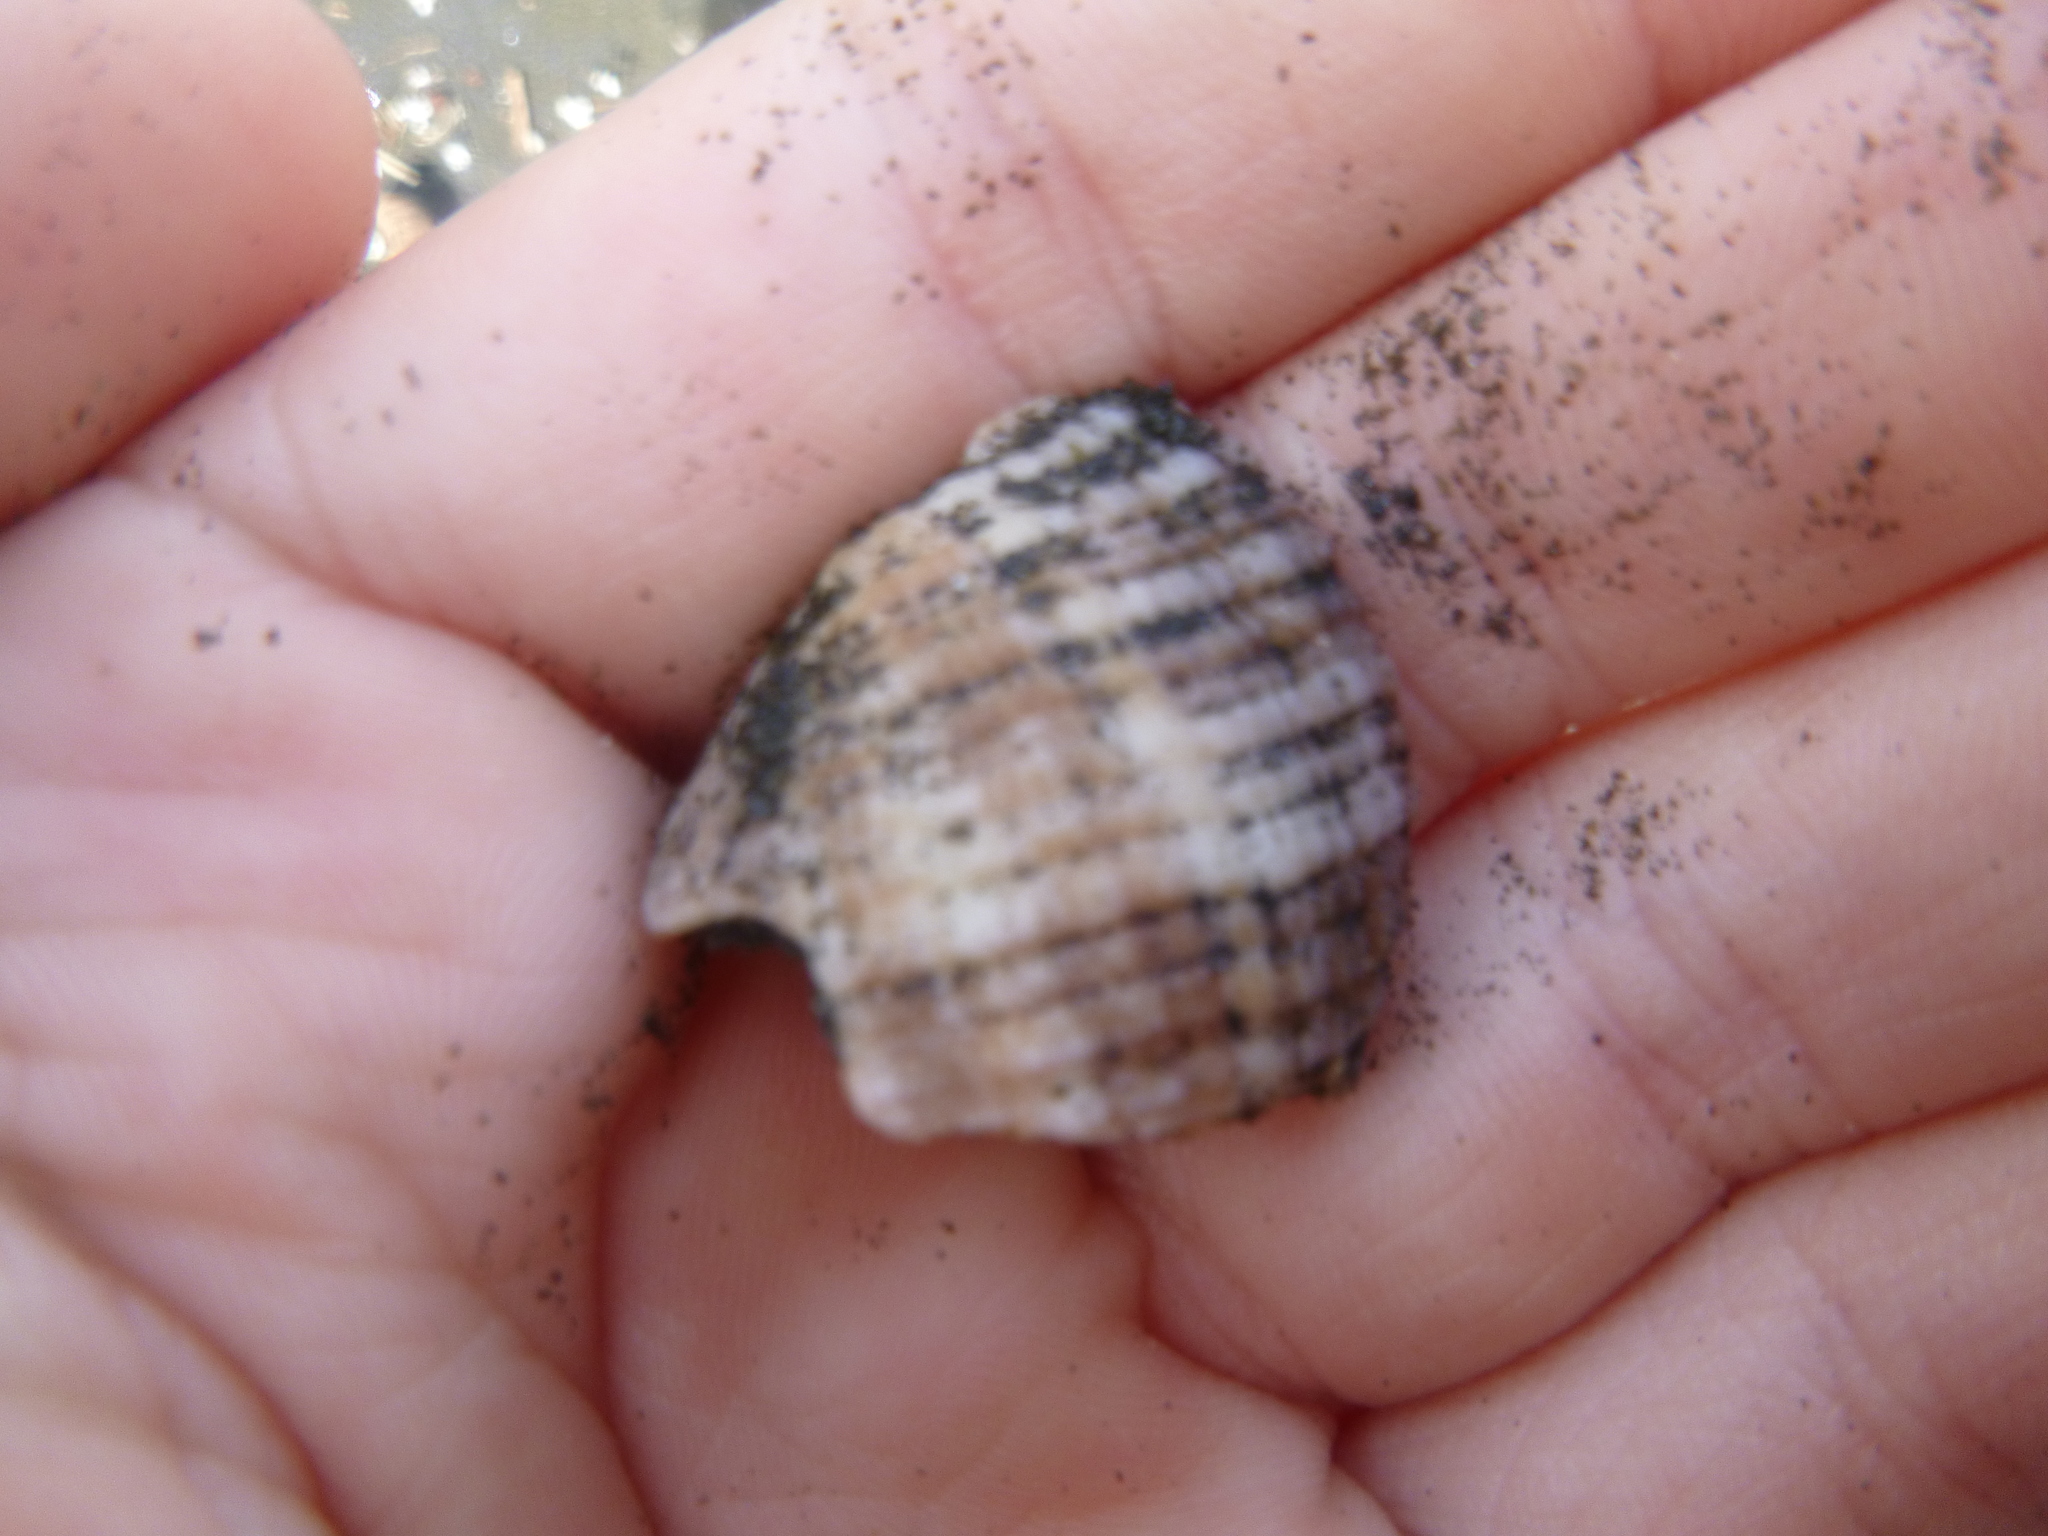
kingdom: Animalia
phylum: Mollusca
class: Gastropoda
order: Neogastropoda
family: Muricidae
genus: Dicathais
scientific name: Dicathais orbita
